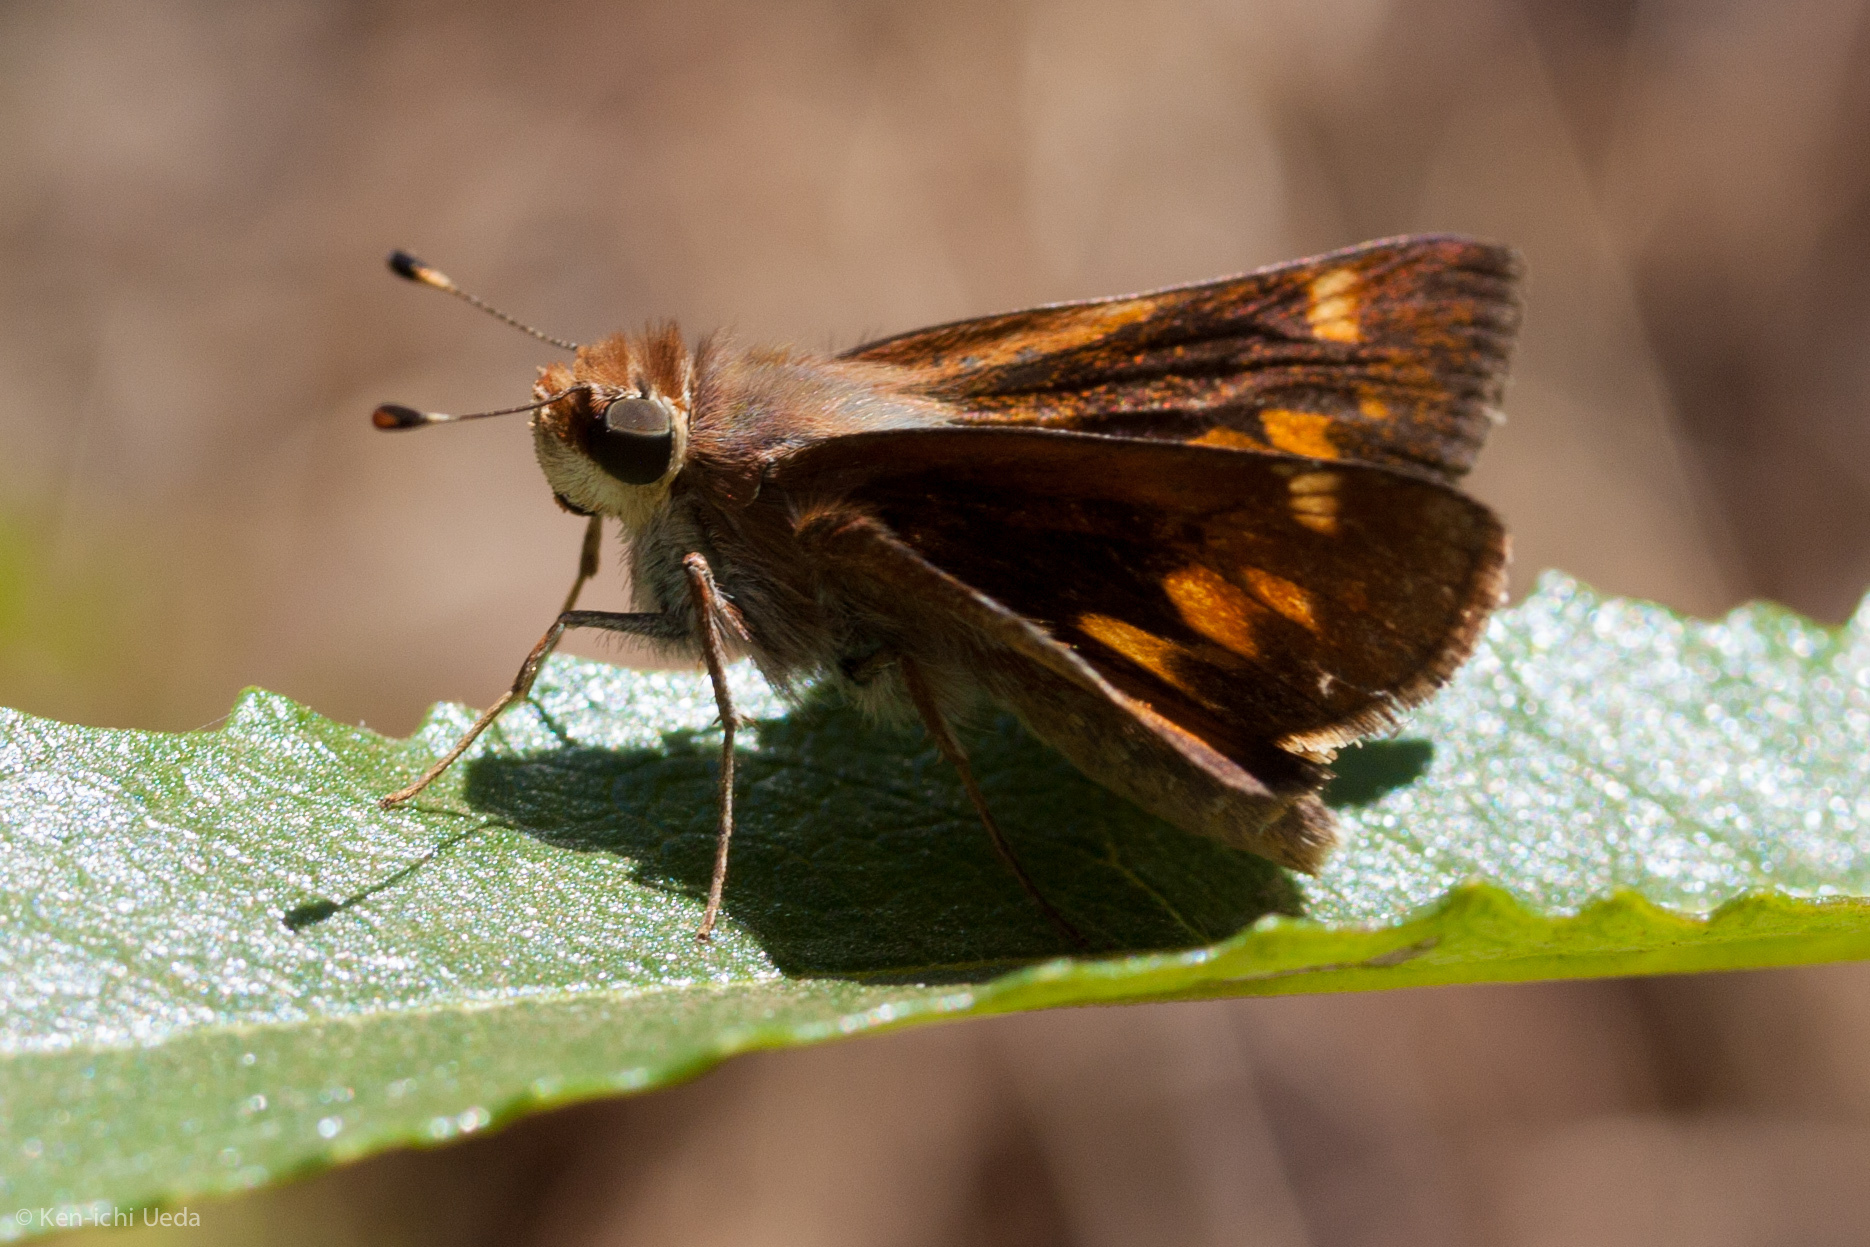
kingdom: Animalia
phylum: Arthropoda
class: Insecta
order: Lepidoptera
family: Hesperiidae
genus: Lon
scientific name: Lon melane
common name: Umber skipper
